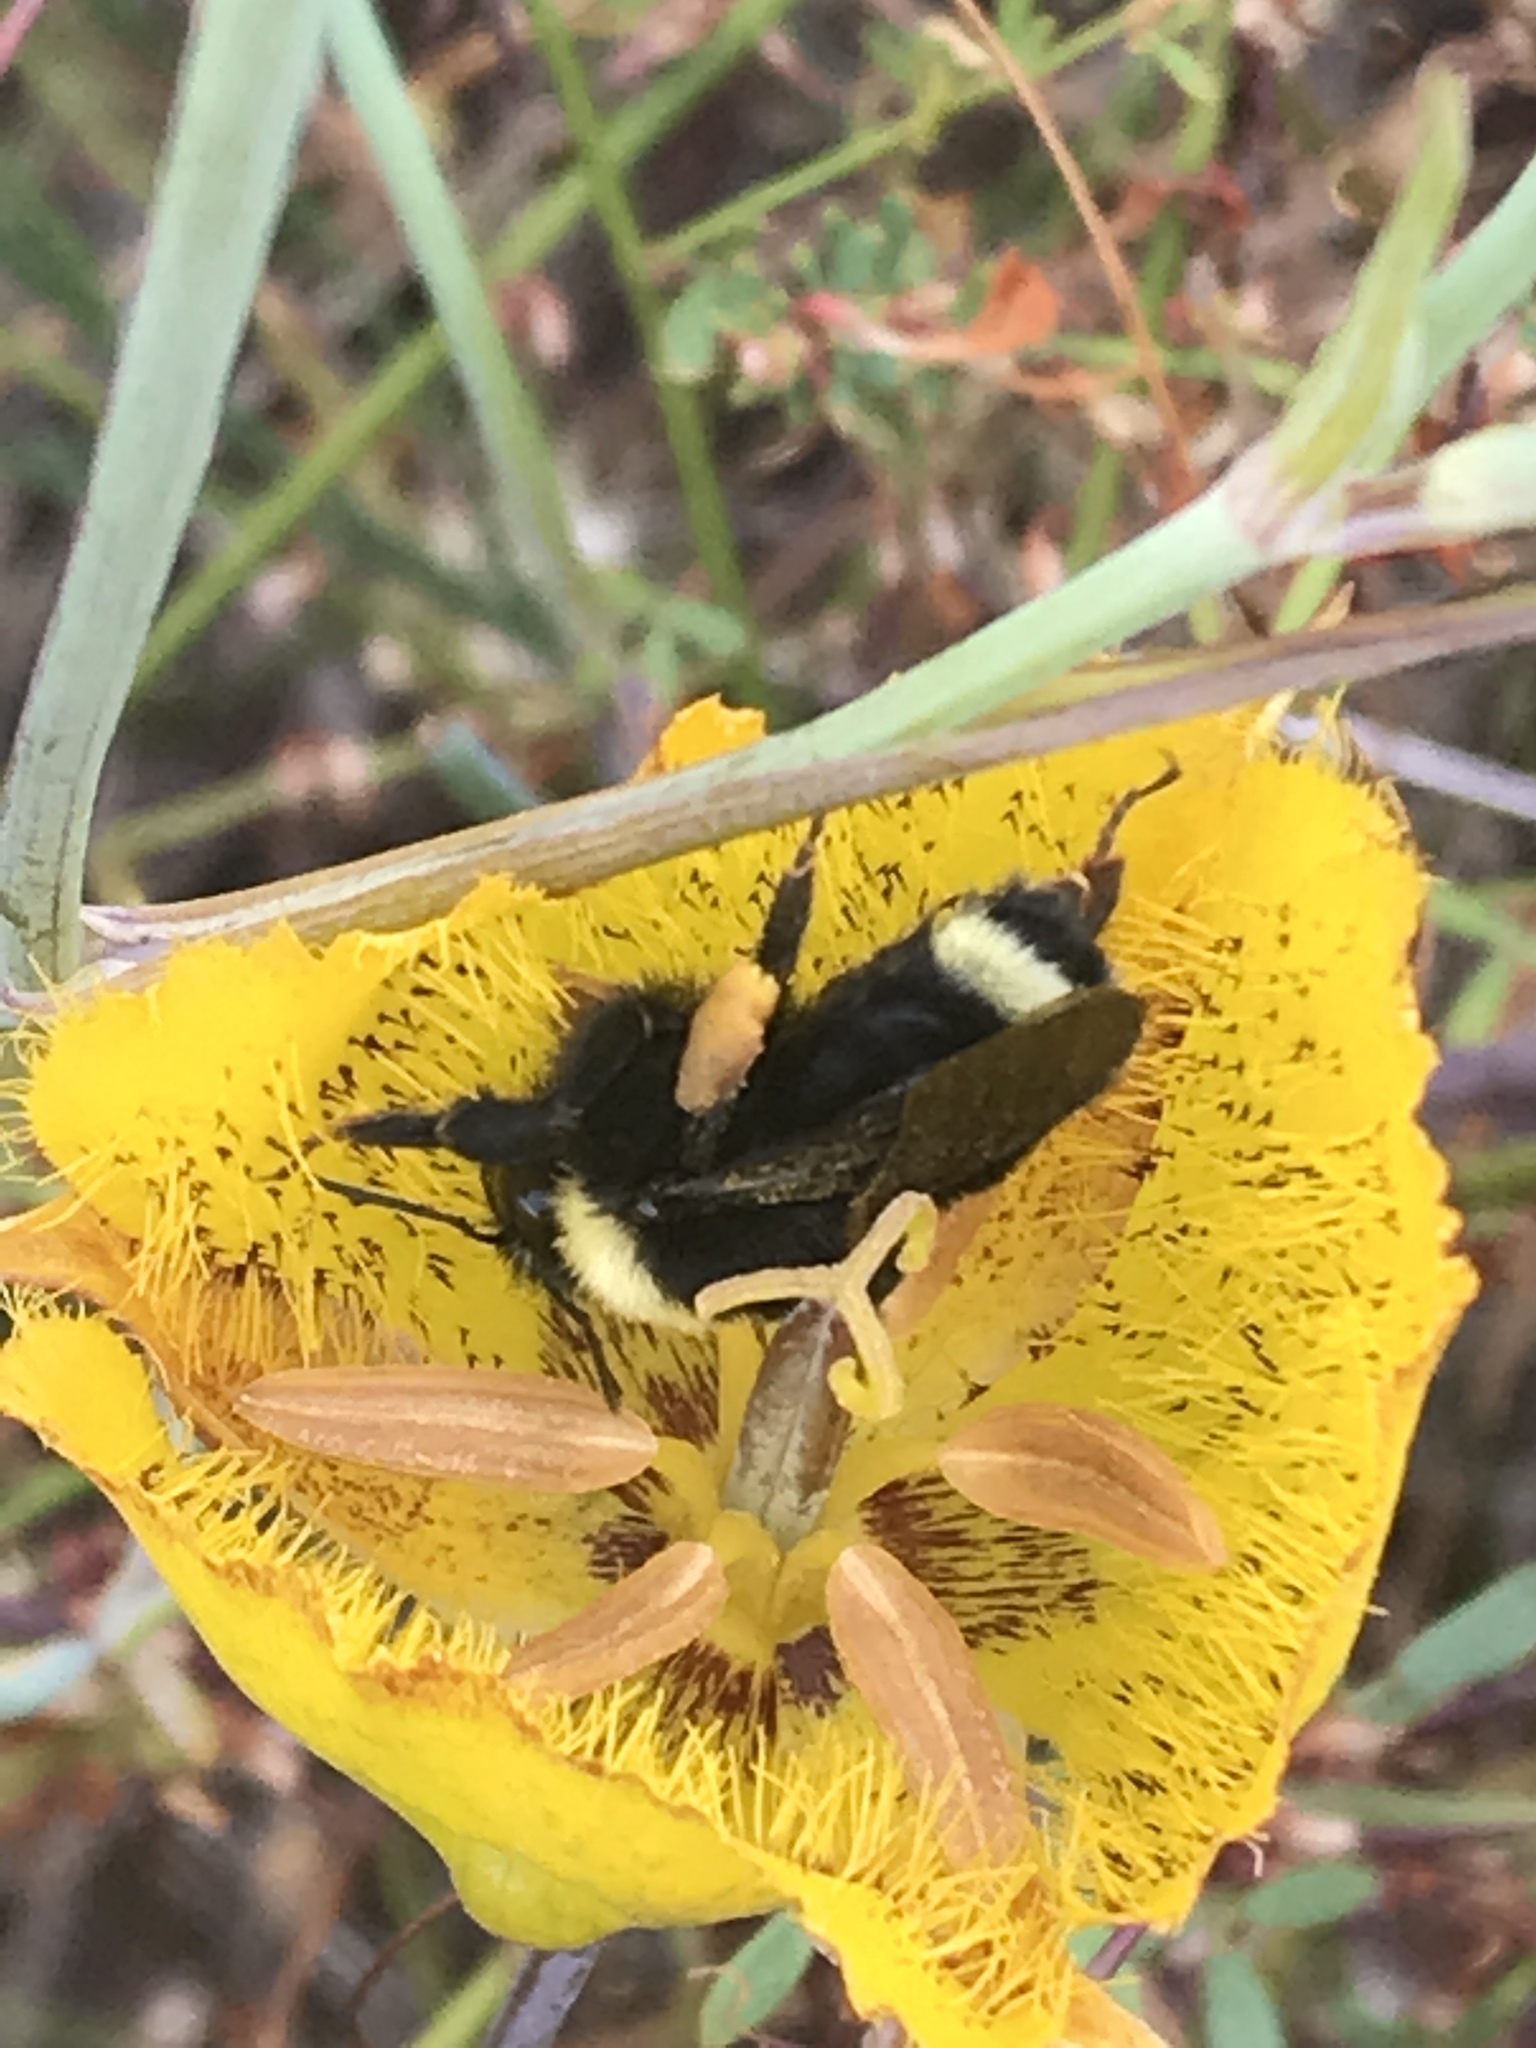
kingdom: Animalia
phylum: Arthropoda
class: Insecta
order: Hymenoptera
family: Apidae
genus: Bombus
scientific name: Bombus californicus
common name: California bumble bee
